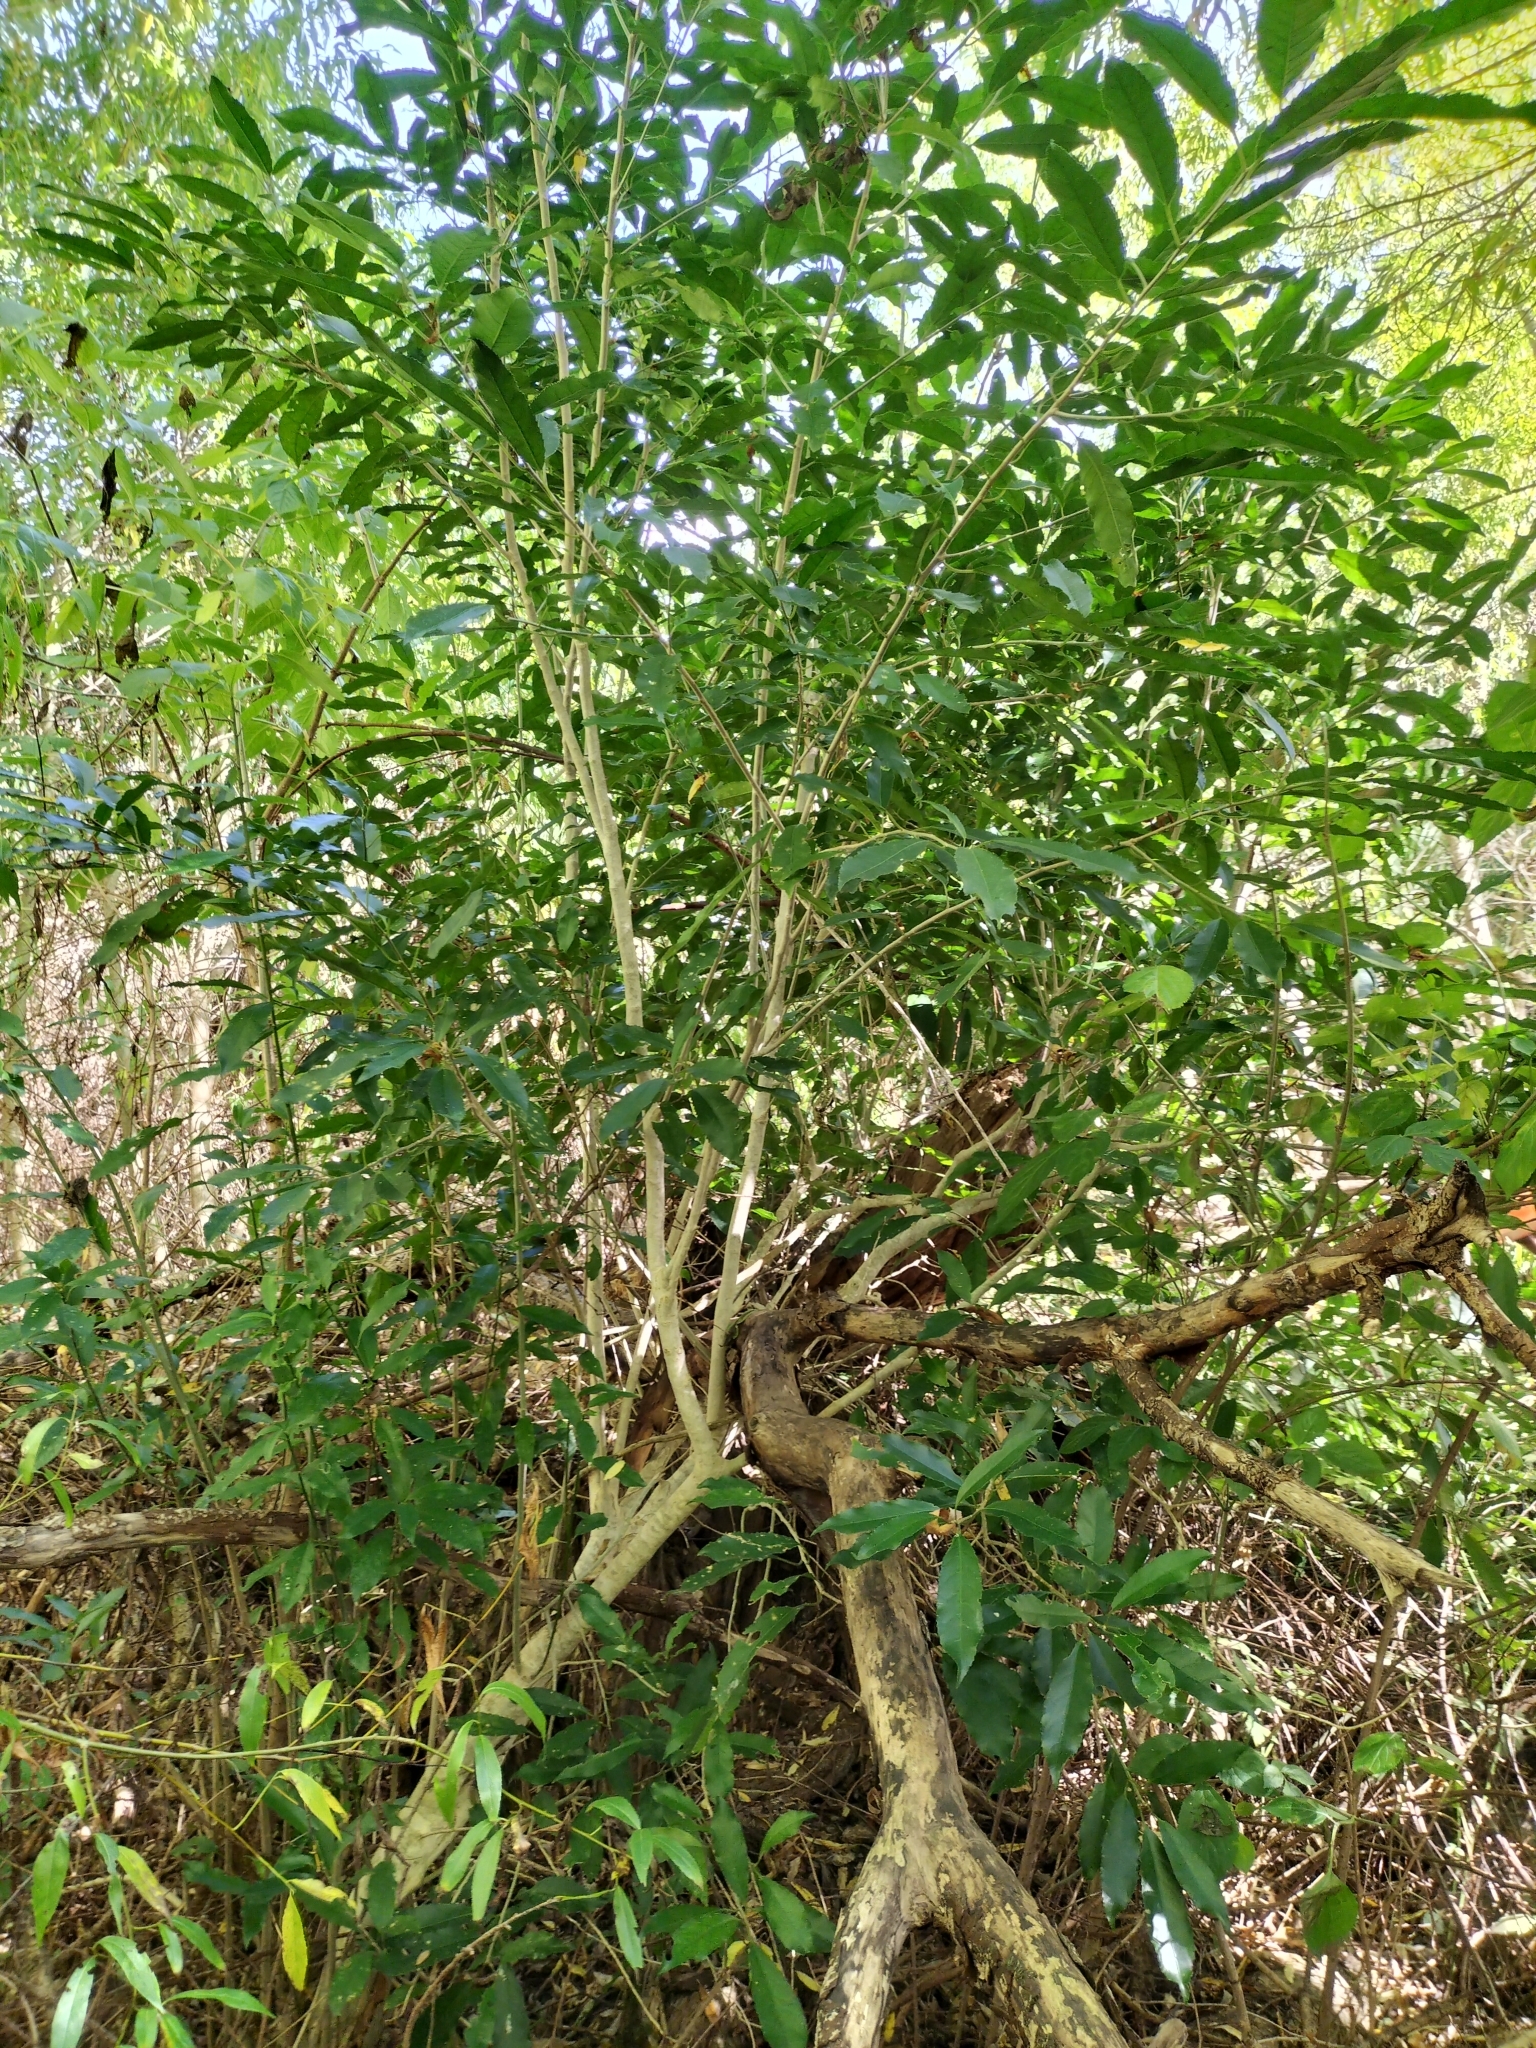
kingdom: Plantae
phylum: Tracheophyta
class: Magnoliopsida
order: Malpighiales
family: Violaceae
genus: Melicytus
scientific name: Melicytus ramiflorus
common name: Mahoe
